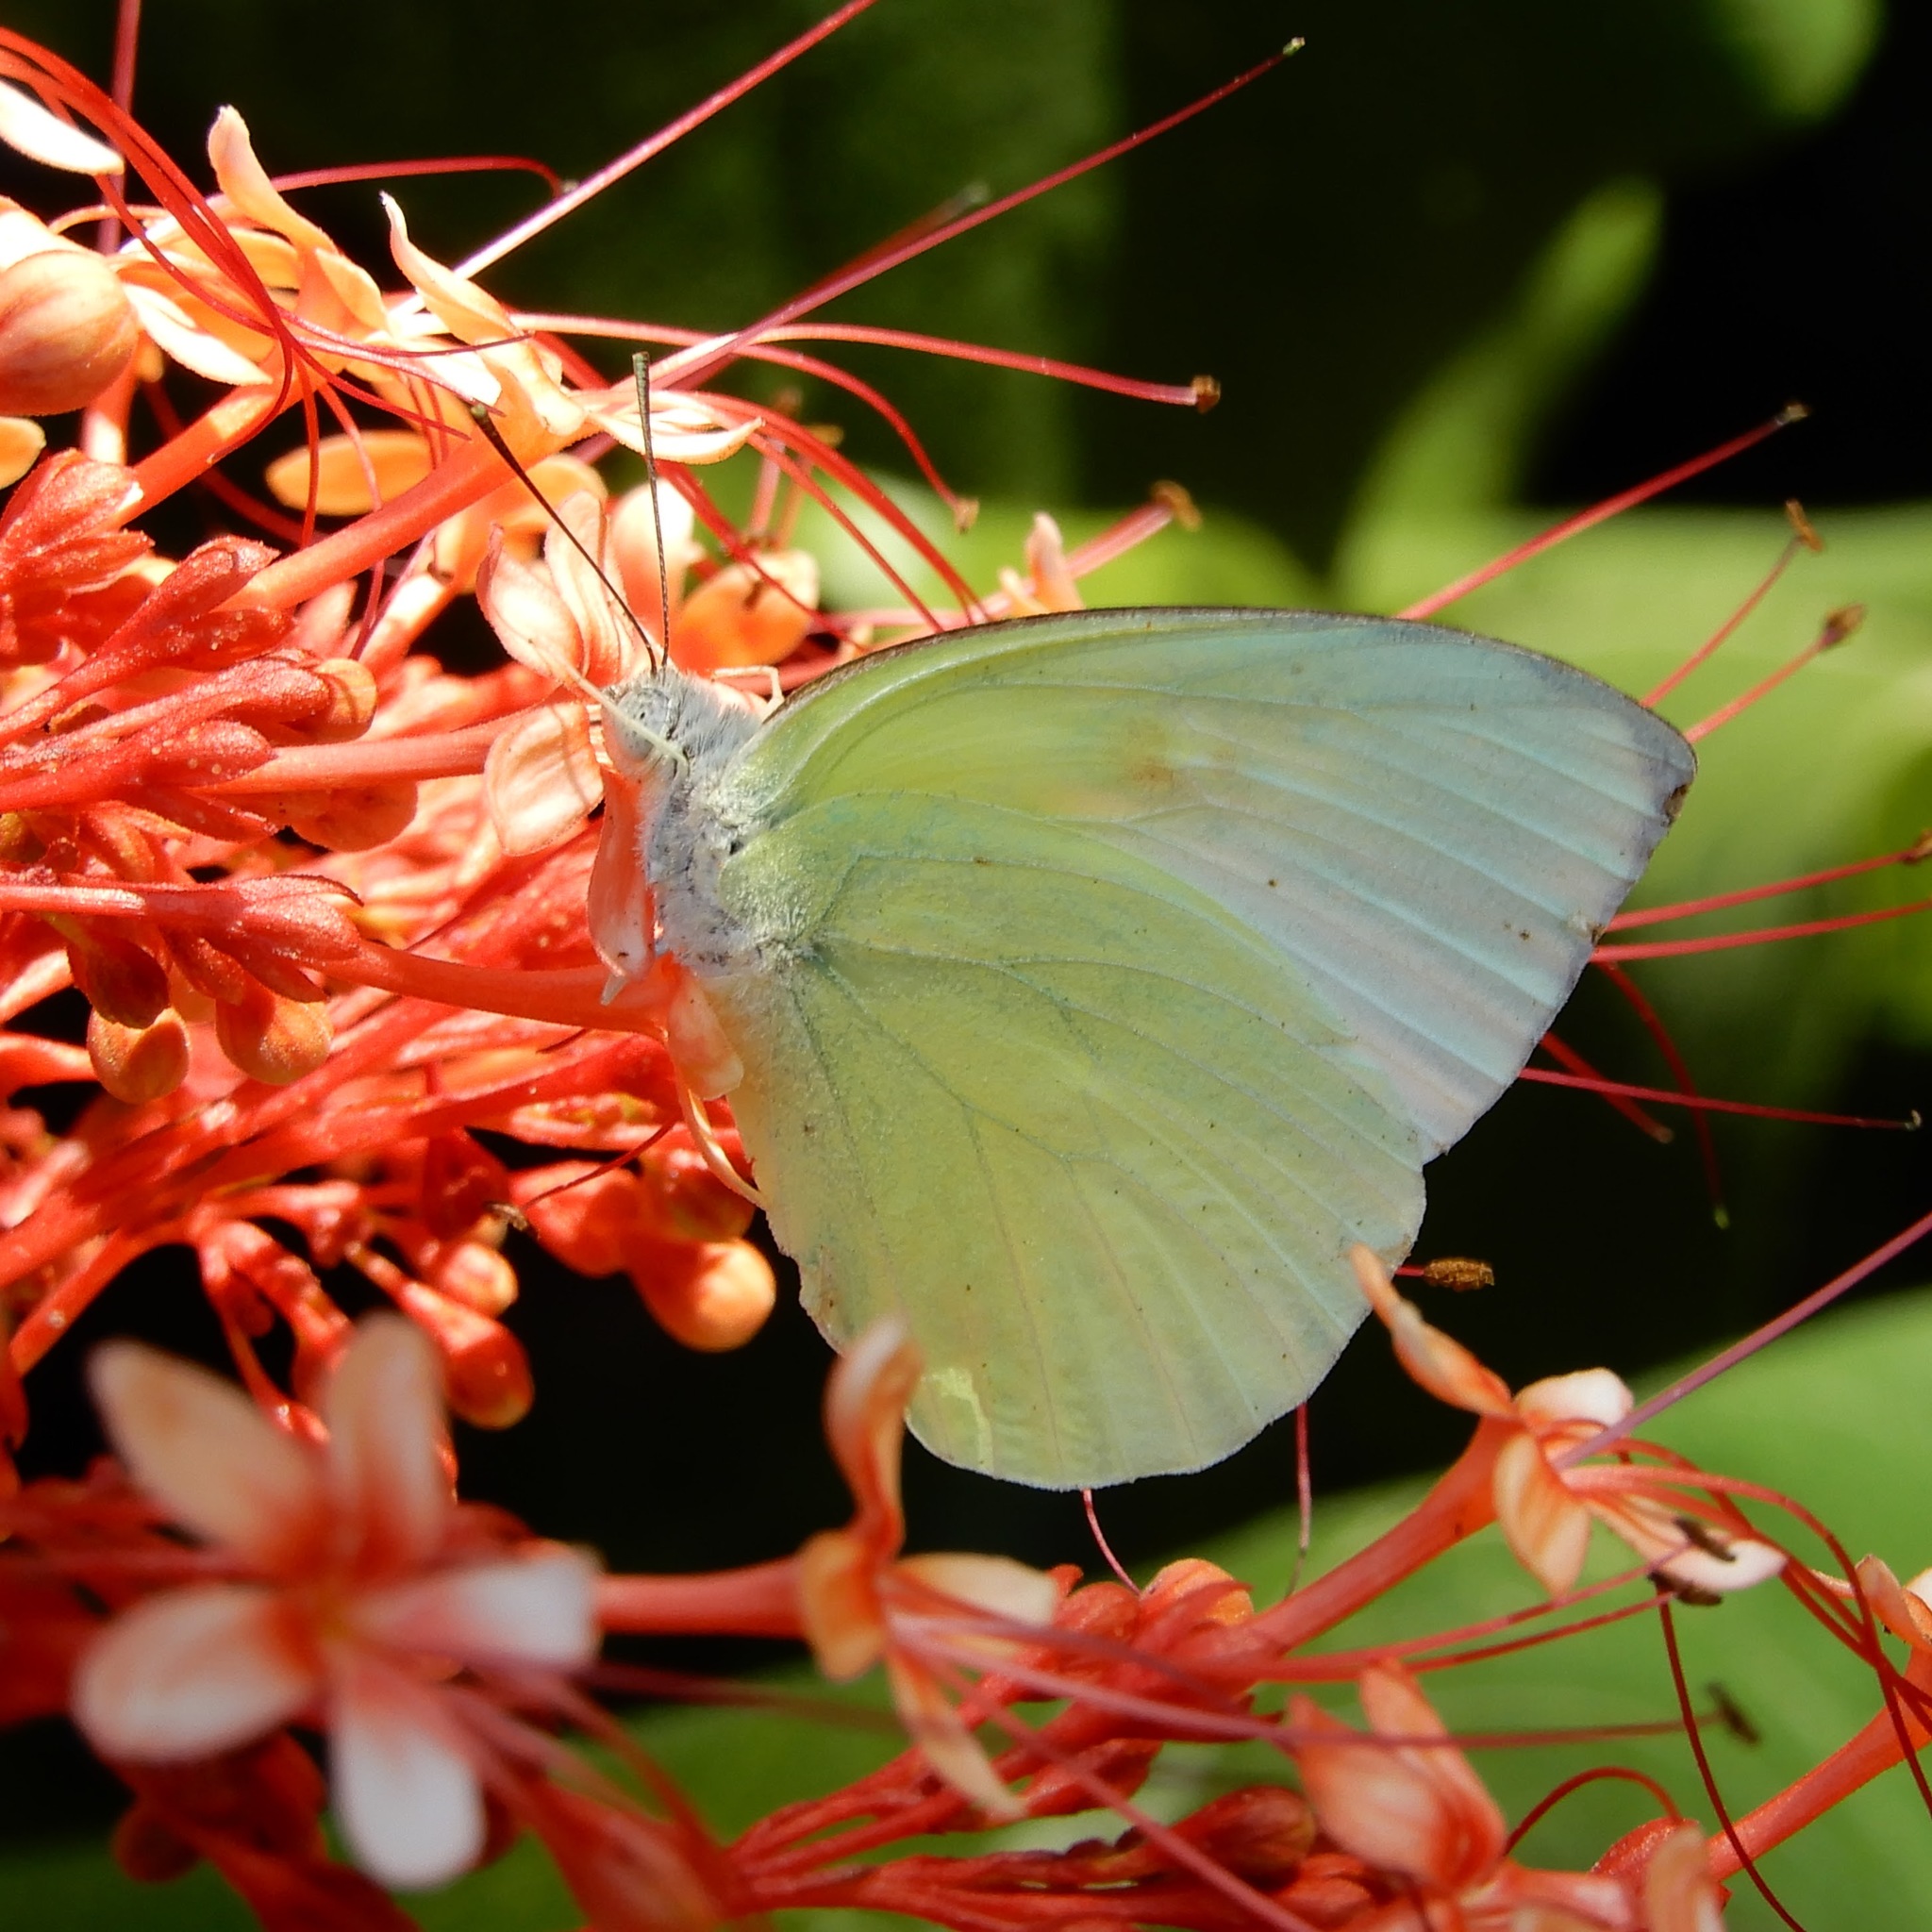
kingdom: Animalia
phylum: Arthropoda
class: Insecta
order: Lepidoptera
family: Pieridae
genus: Catopsilia
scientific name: Catopsilia pomona
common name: Common emigrant
